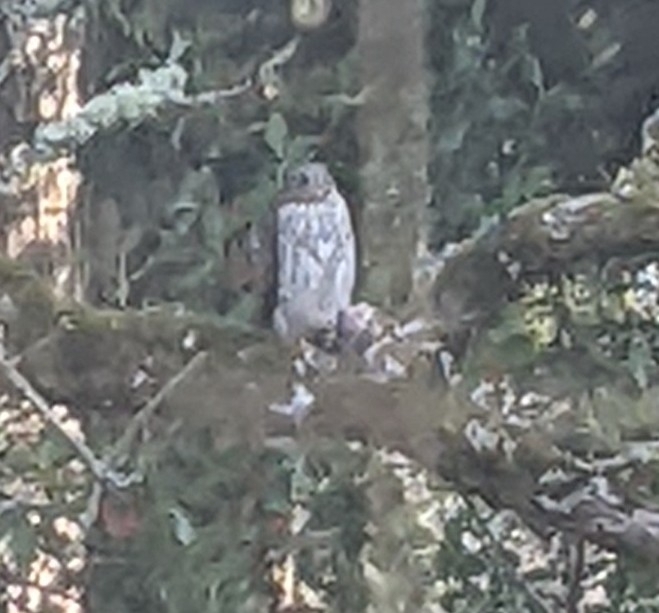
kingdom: Animalia
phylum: Chordata
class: Aves
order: Accipitriformes
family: Accipitridae
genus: Accipiter
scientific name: Accipiter cooperii
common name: Cooper's hawk
